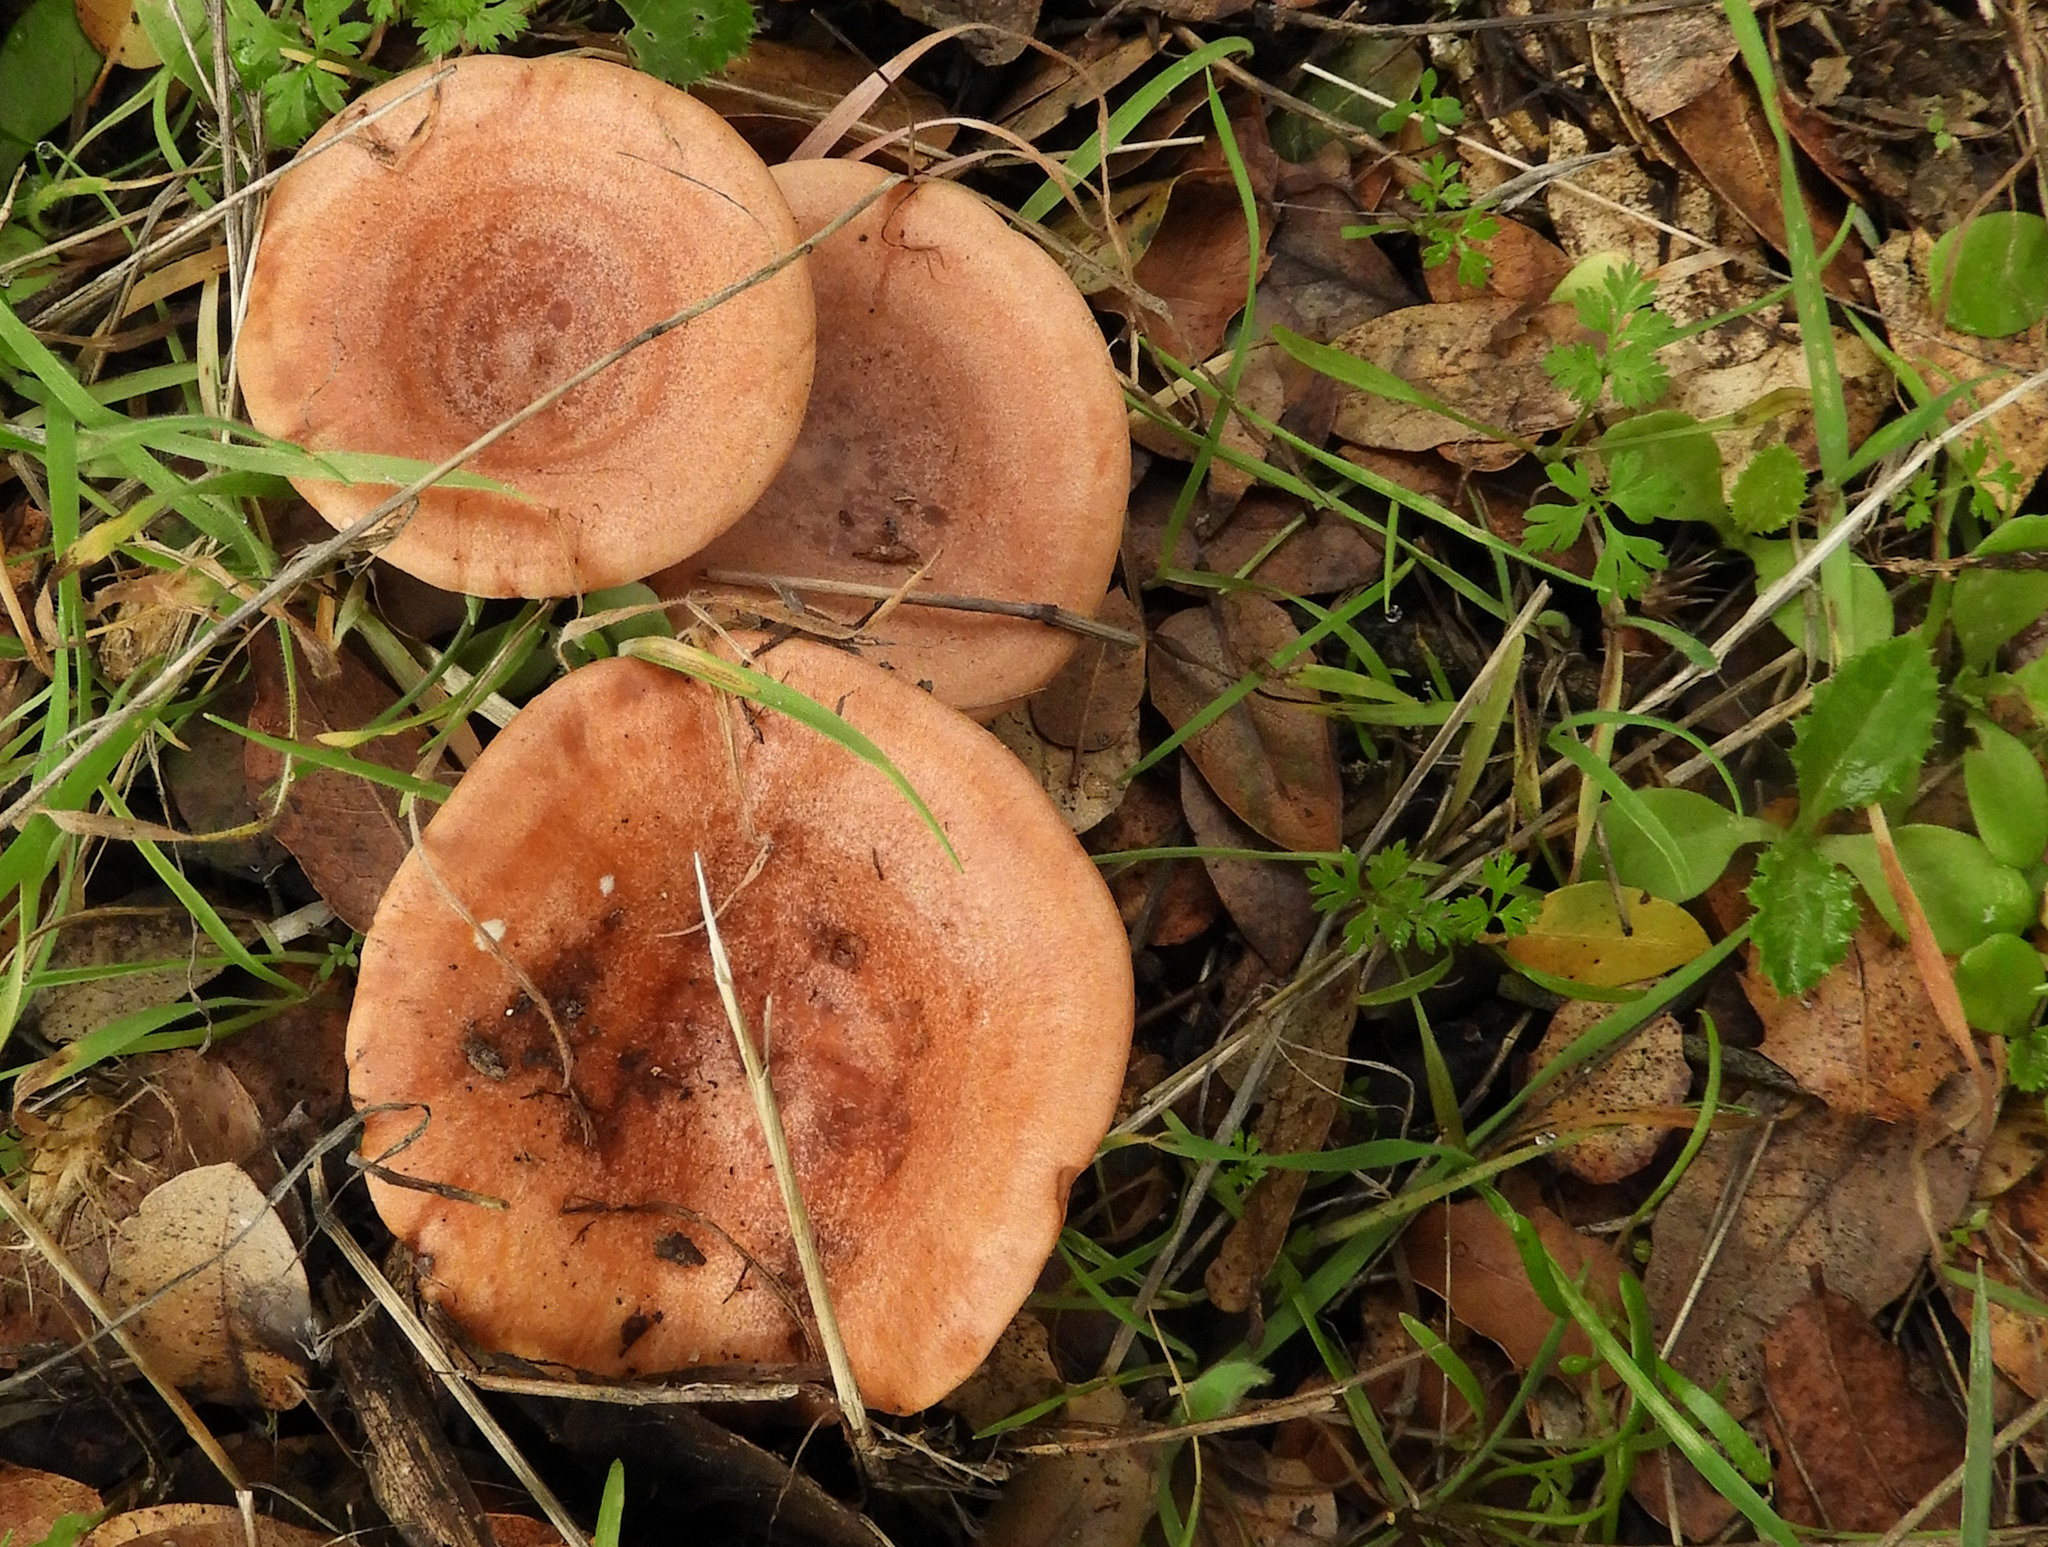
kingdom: Fungi
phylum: Basidiomycota
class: Agaricomycetes
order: Russulales
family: Russulaceae
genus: Lactarius
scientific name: Lactarius xanthogalactus
